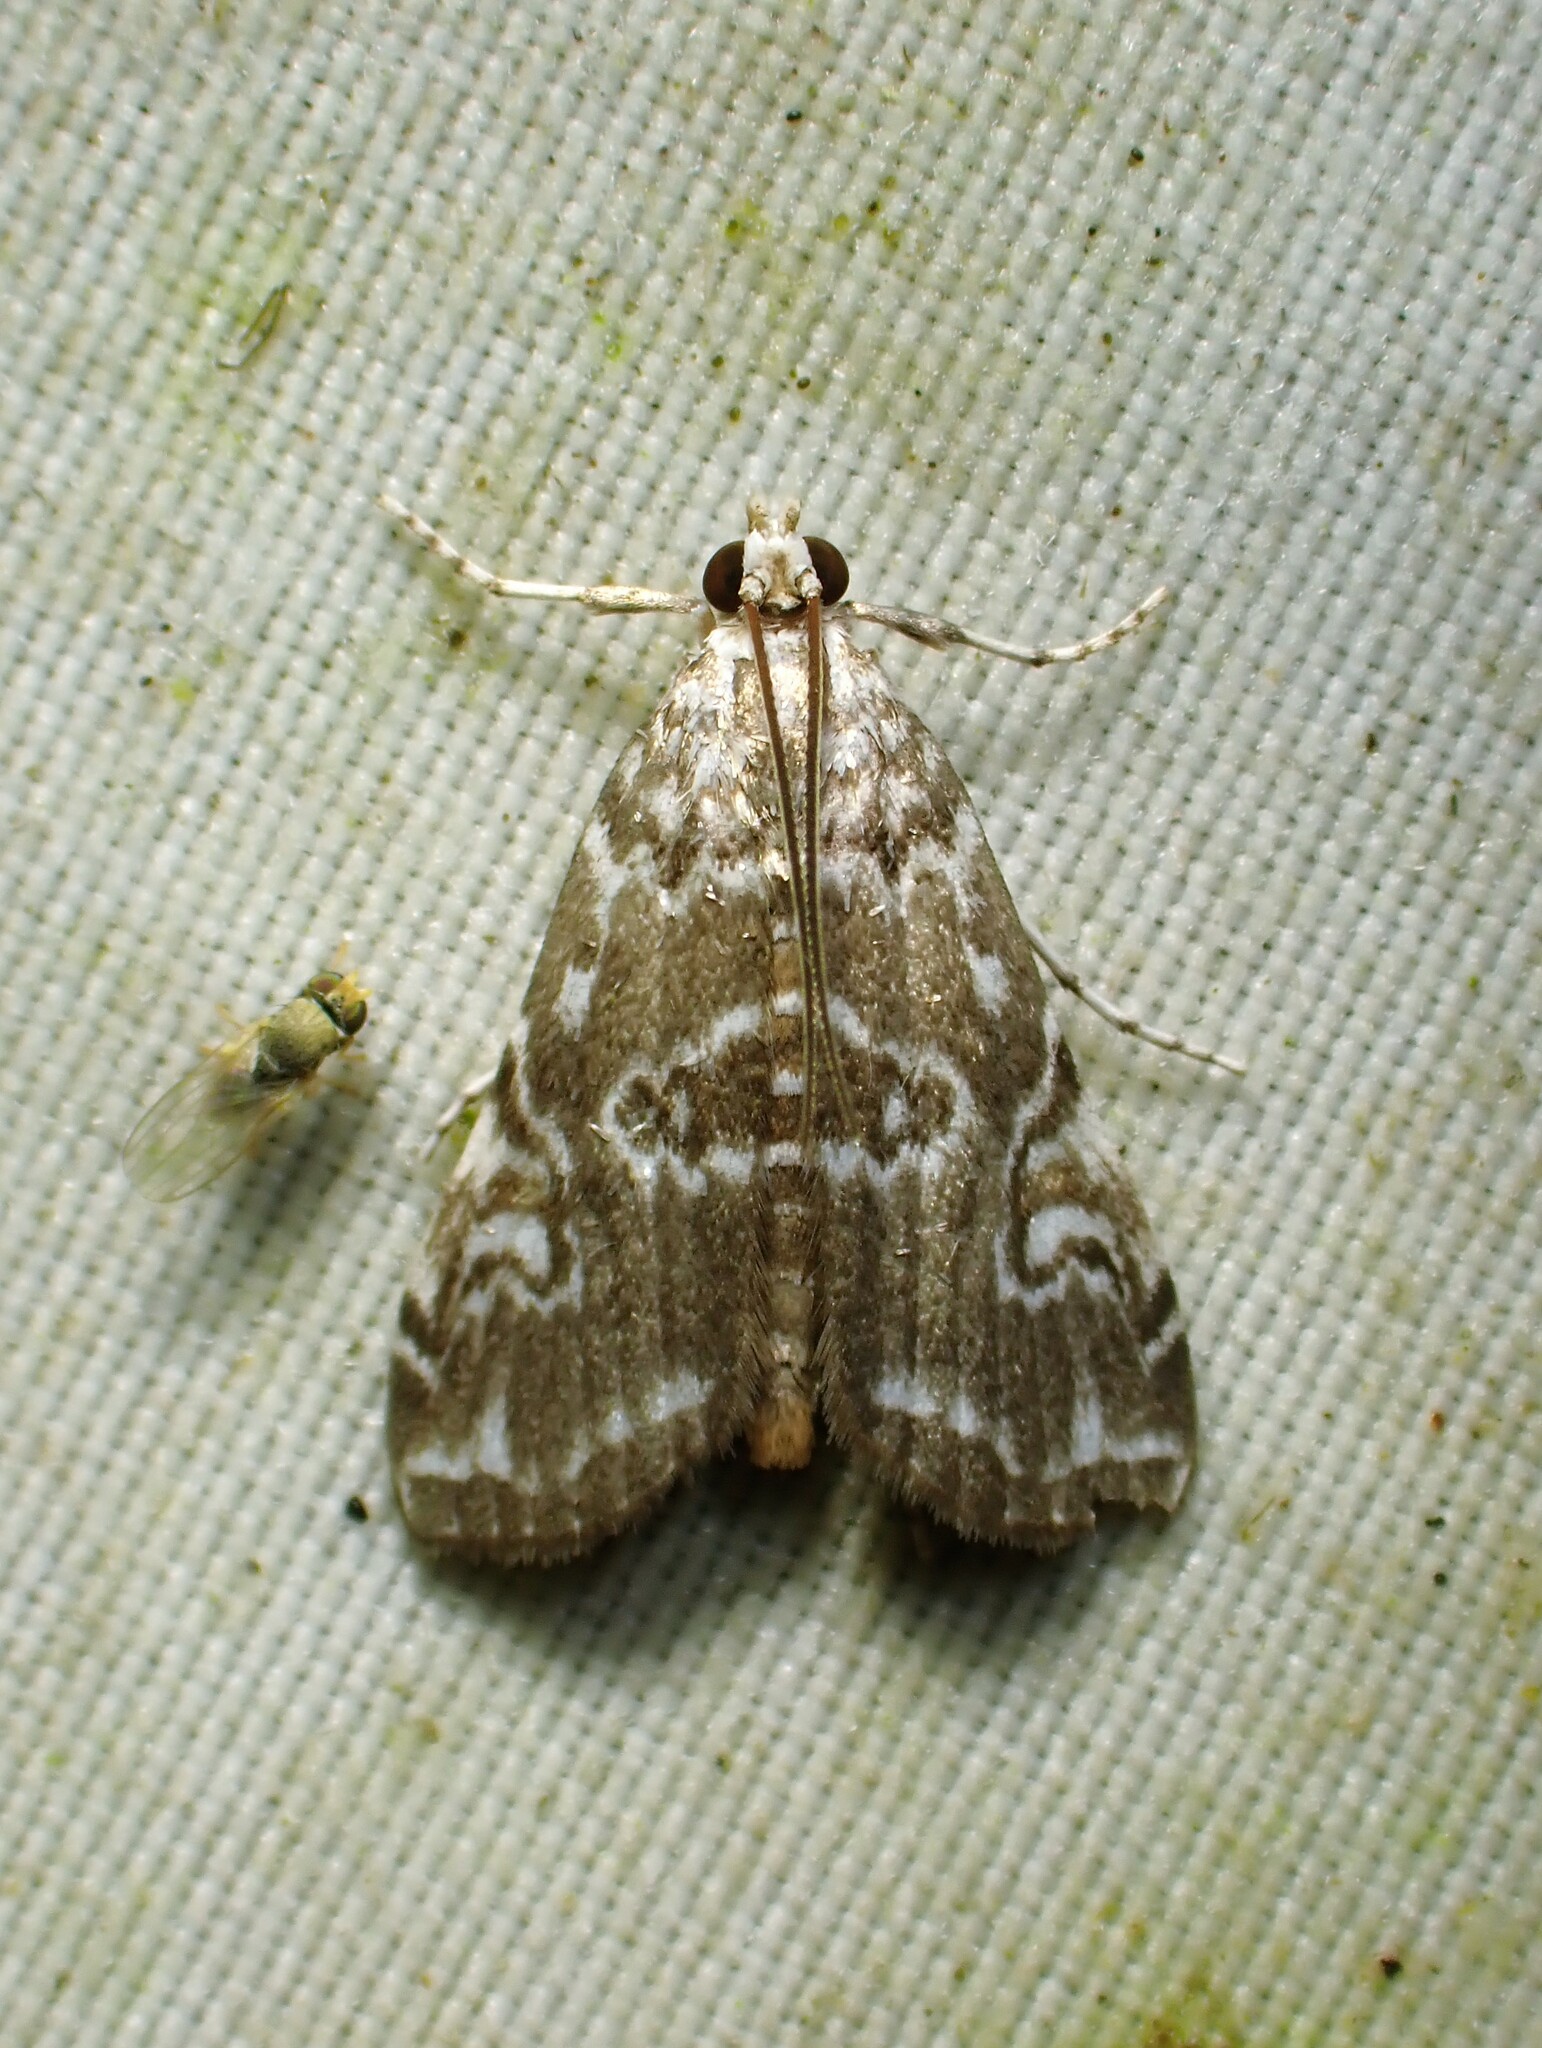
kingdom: Animalia
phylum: Arthropoda
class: Insecta
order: Lepidoptera
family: Crambidae
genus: Elophila
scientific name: Elophila gyralis
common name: Waterlily borer moth
